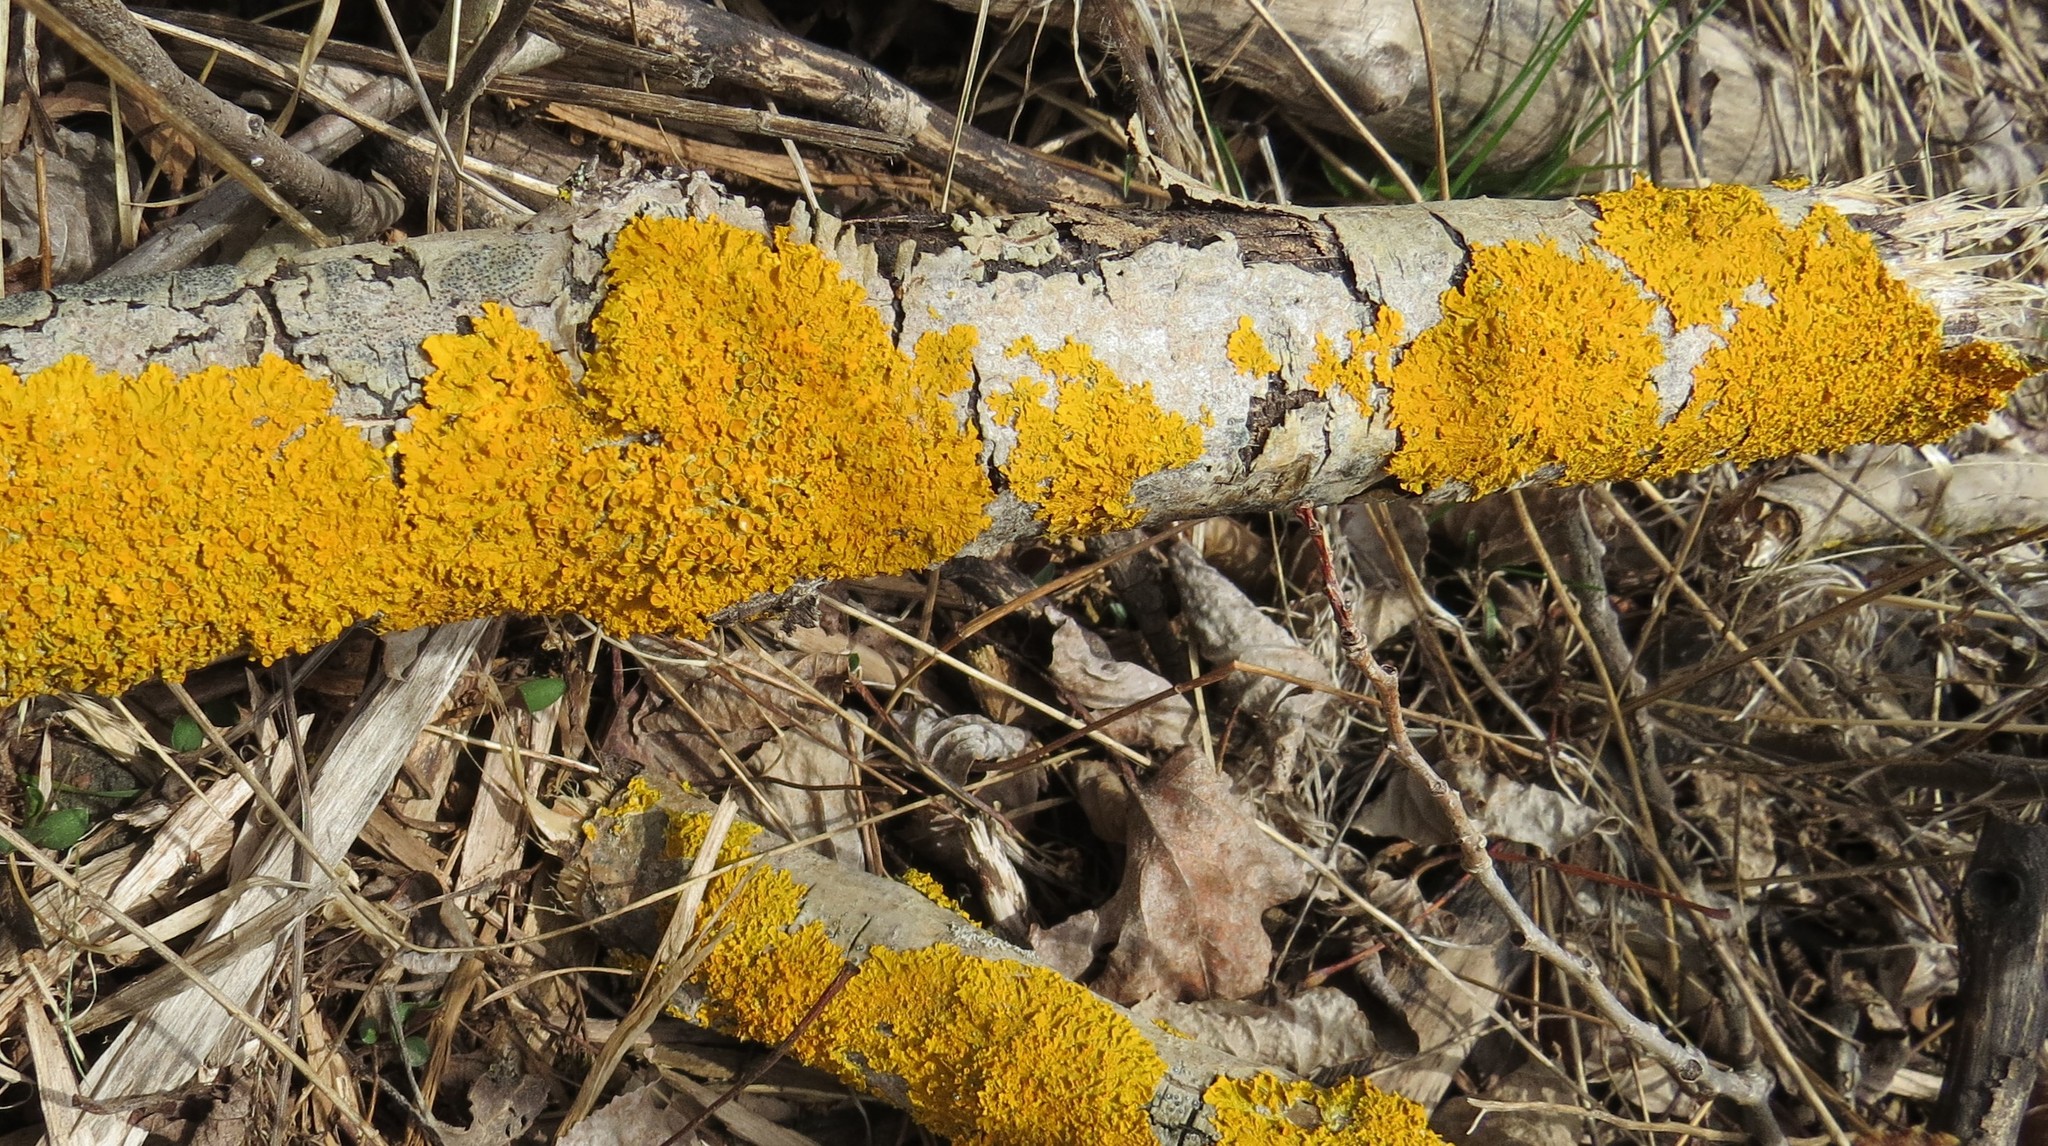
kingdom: Fungi
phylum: Ascomycota
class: Lecanoromycetes
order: Teloschistales
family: Teloschistaceae
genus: Xanthoria
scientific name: Xanthoria parietina
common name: Common orange lichen
